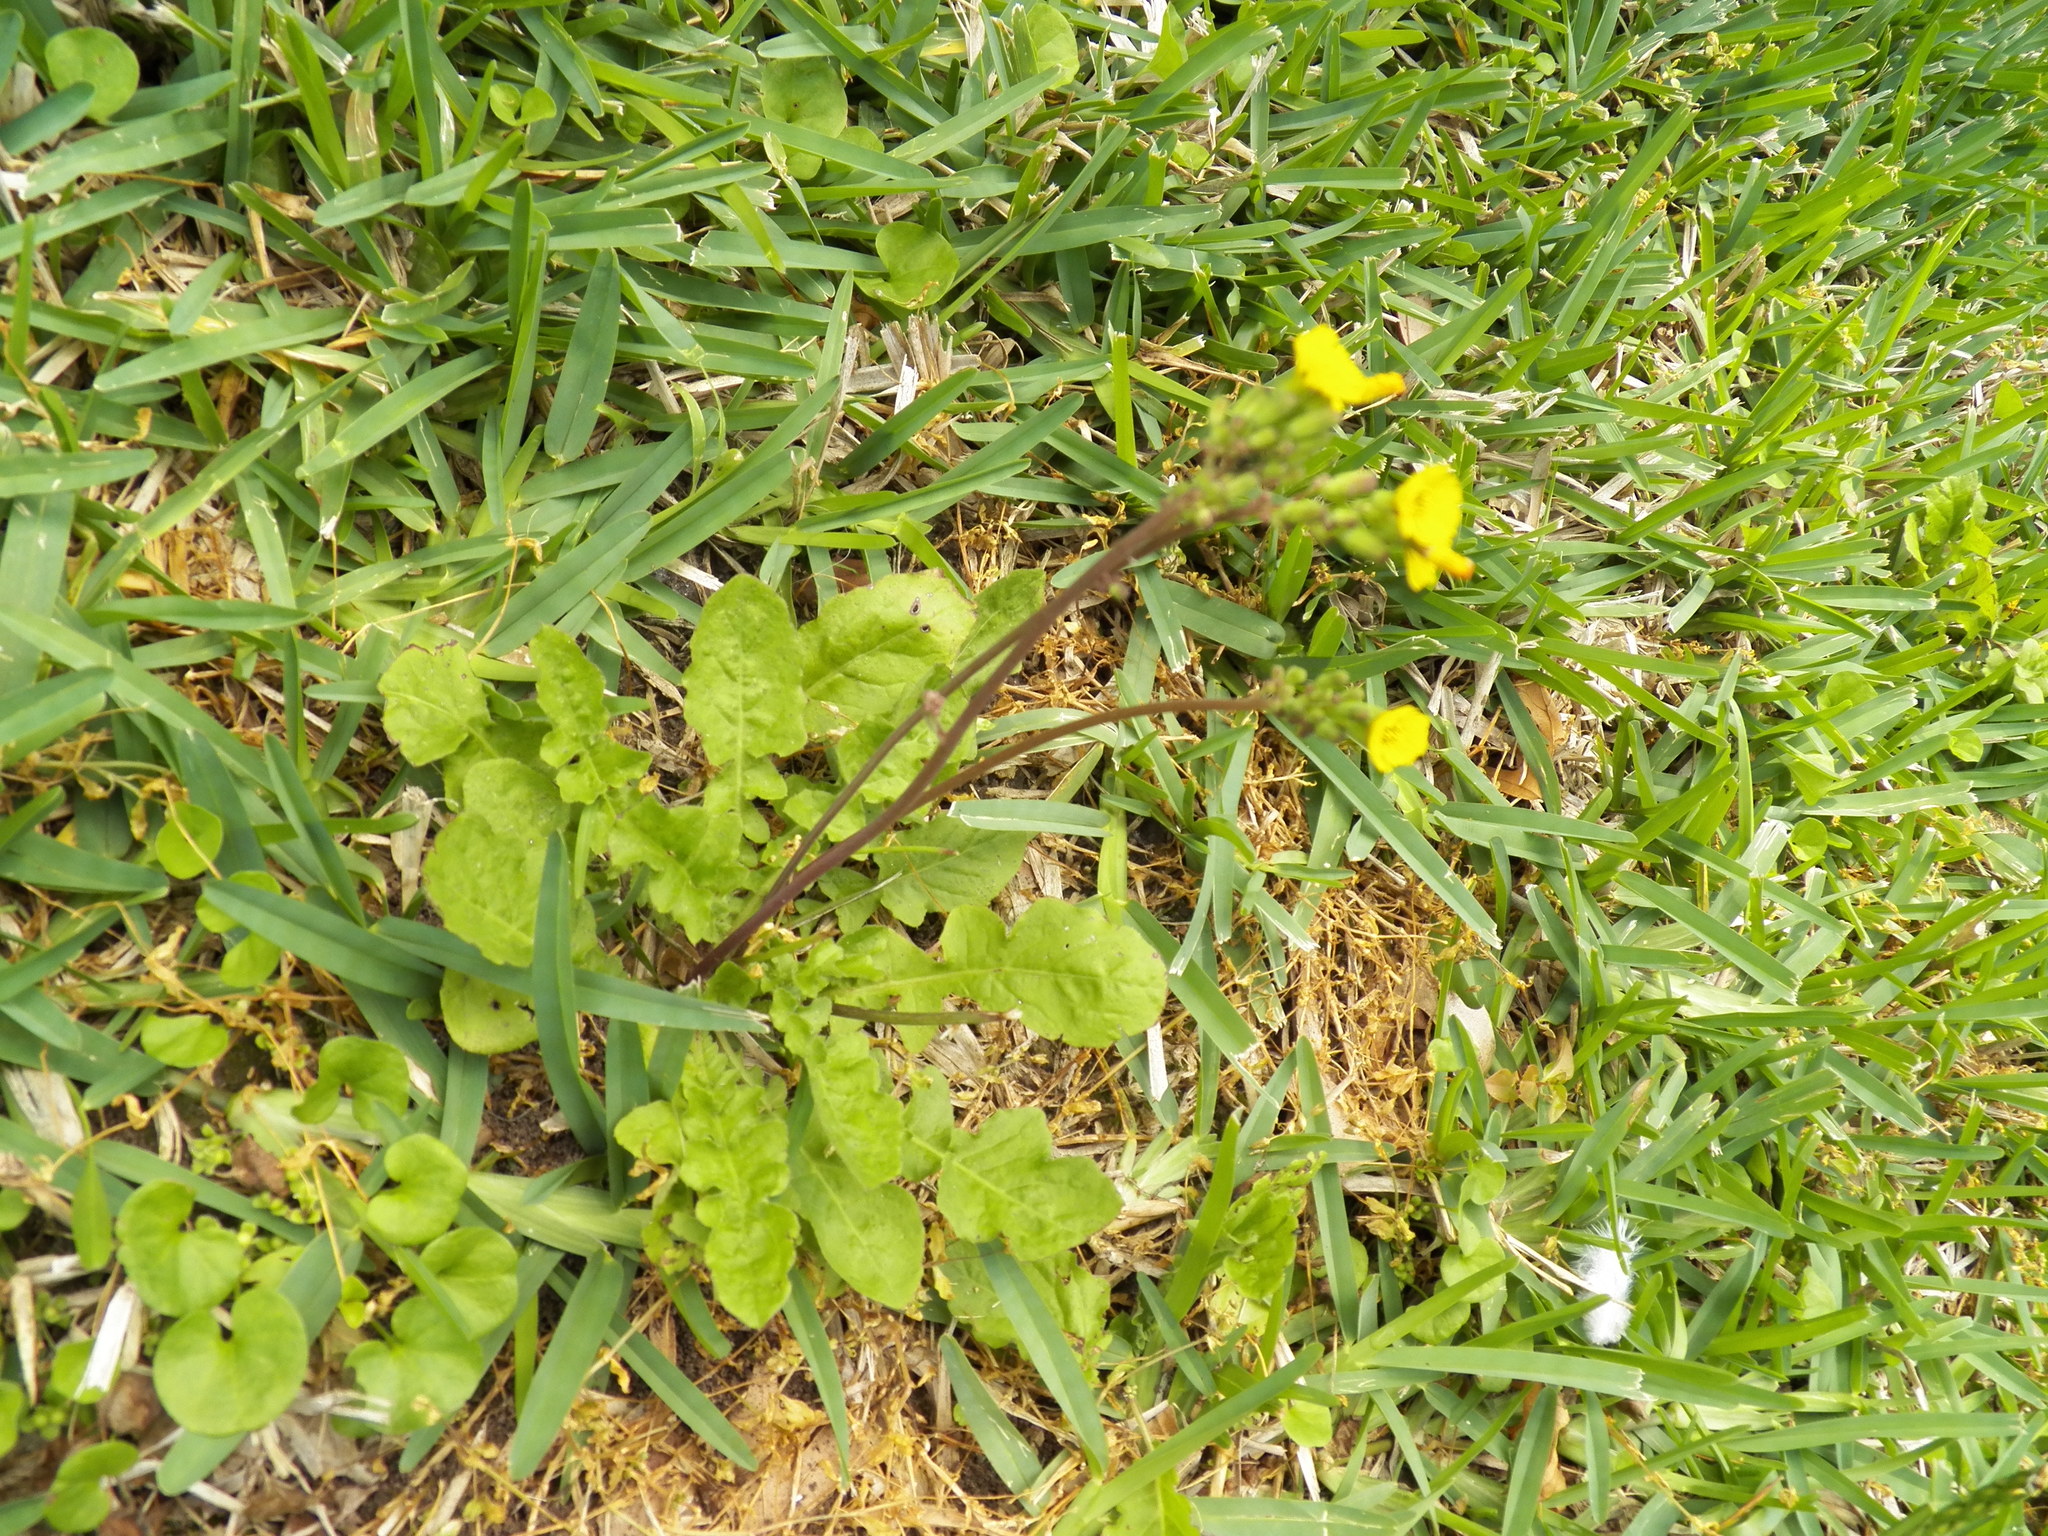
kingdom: Plantae
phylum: Tracheophyta
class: Magnoliopsida
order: Asterales
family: Asteraceae
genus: Youngia
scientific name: Youngia japonica
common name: Oriental false hawksbeard
